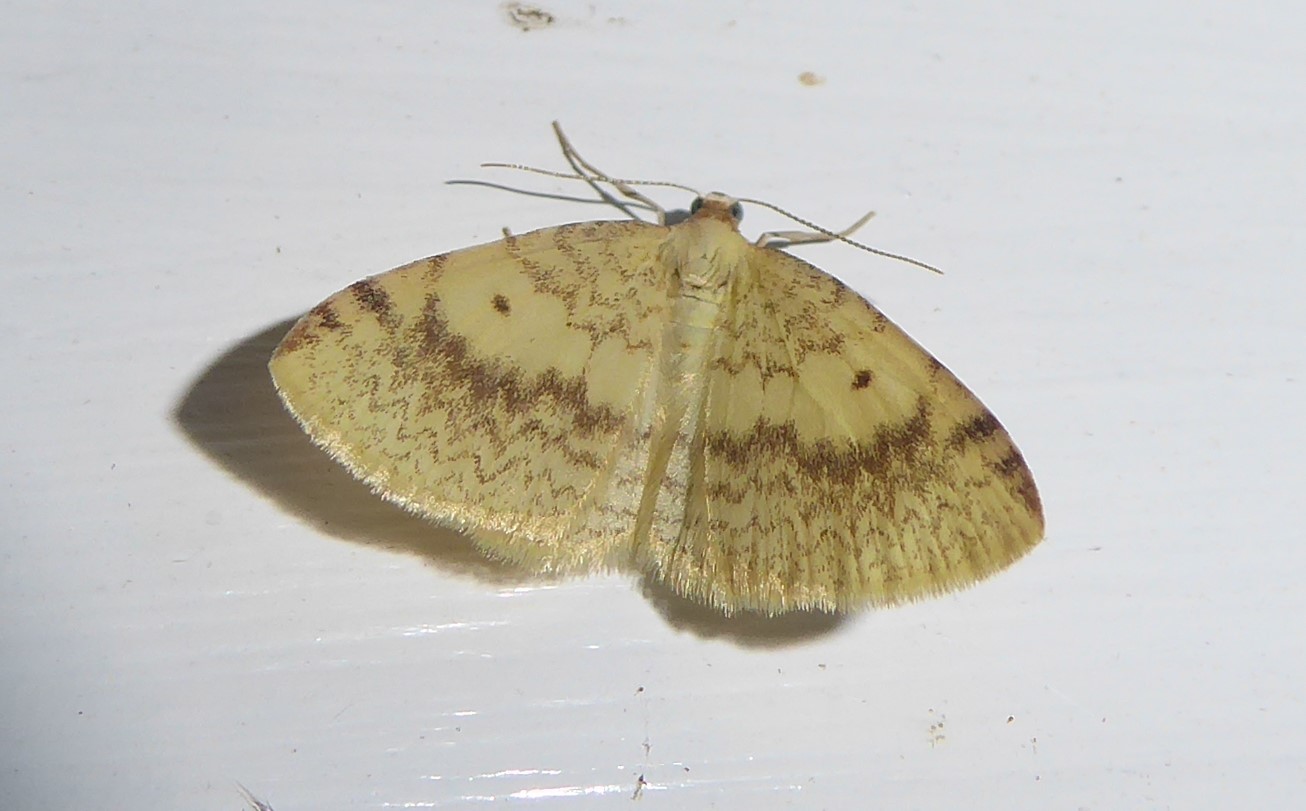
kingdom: Animalia
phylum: Arthropoda
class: Insecta
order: Lepidoptera
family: Geometridae
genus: Epiphryne
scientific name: Epiphryne undosata
